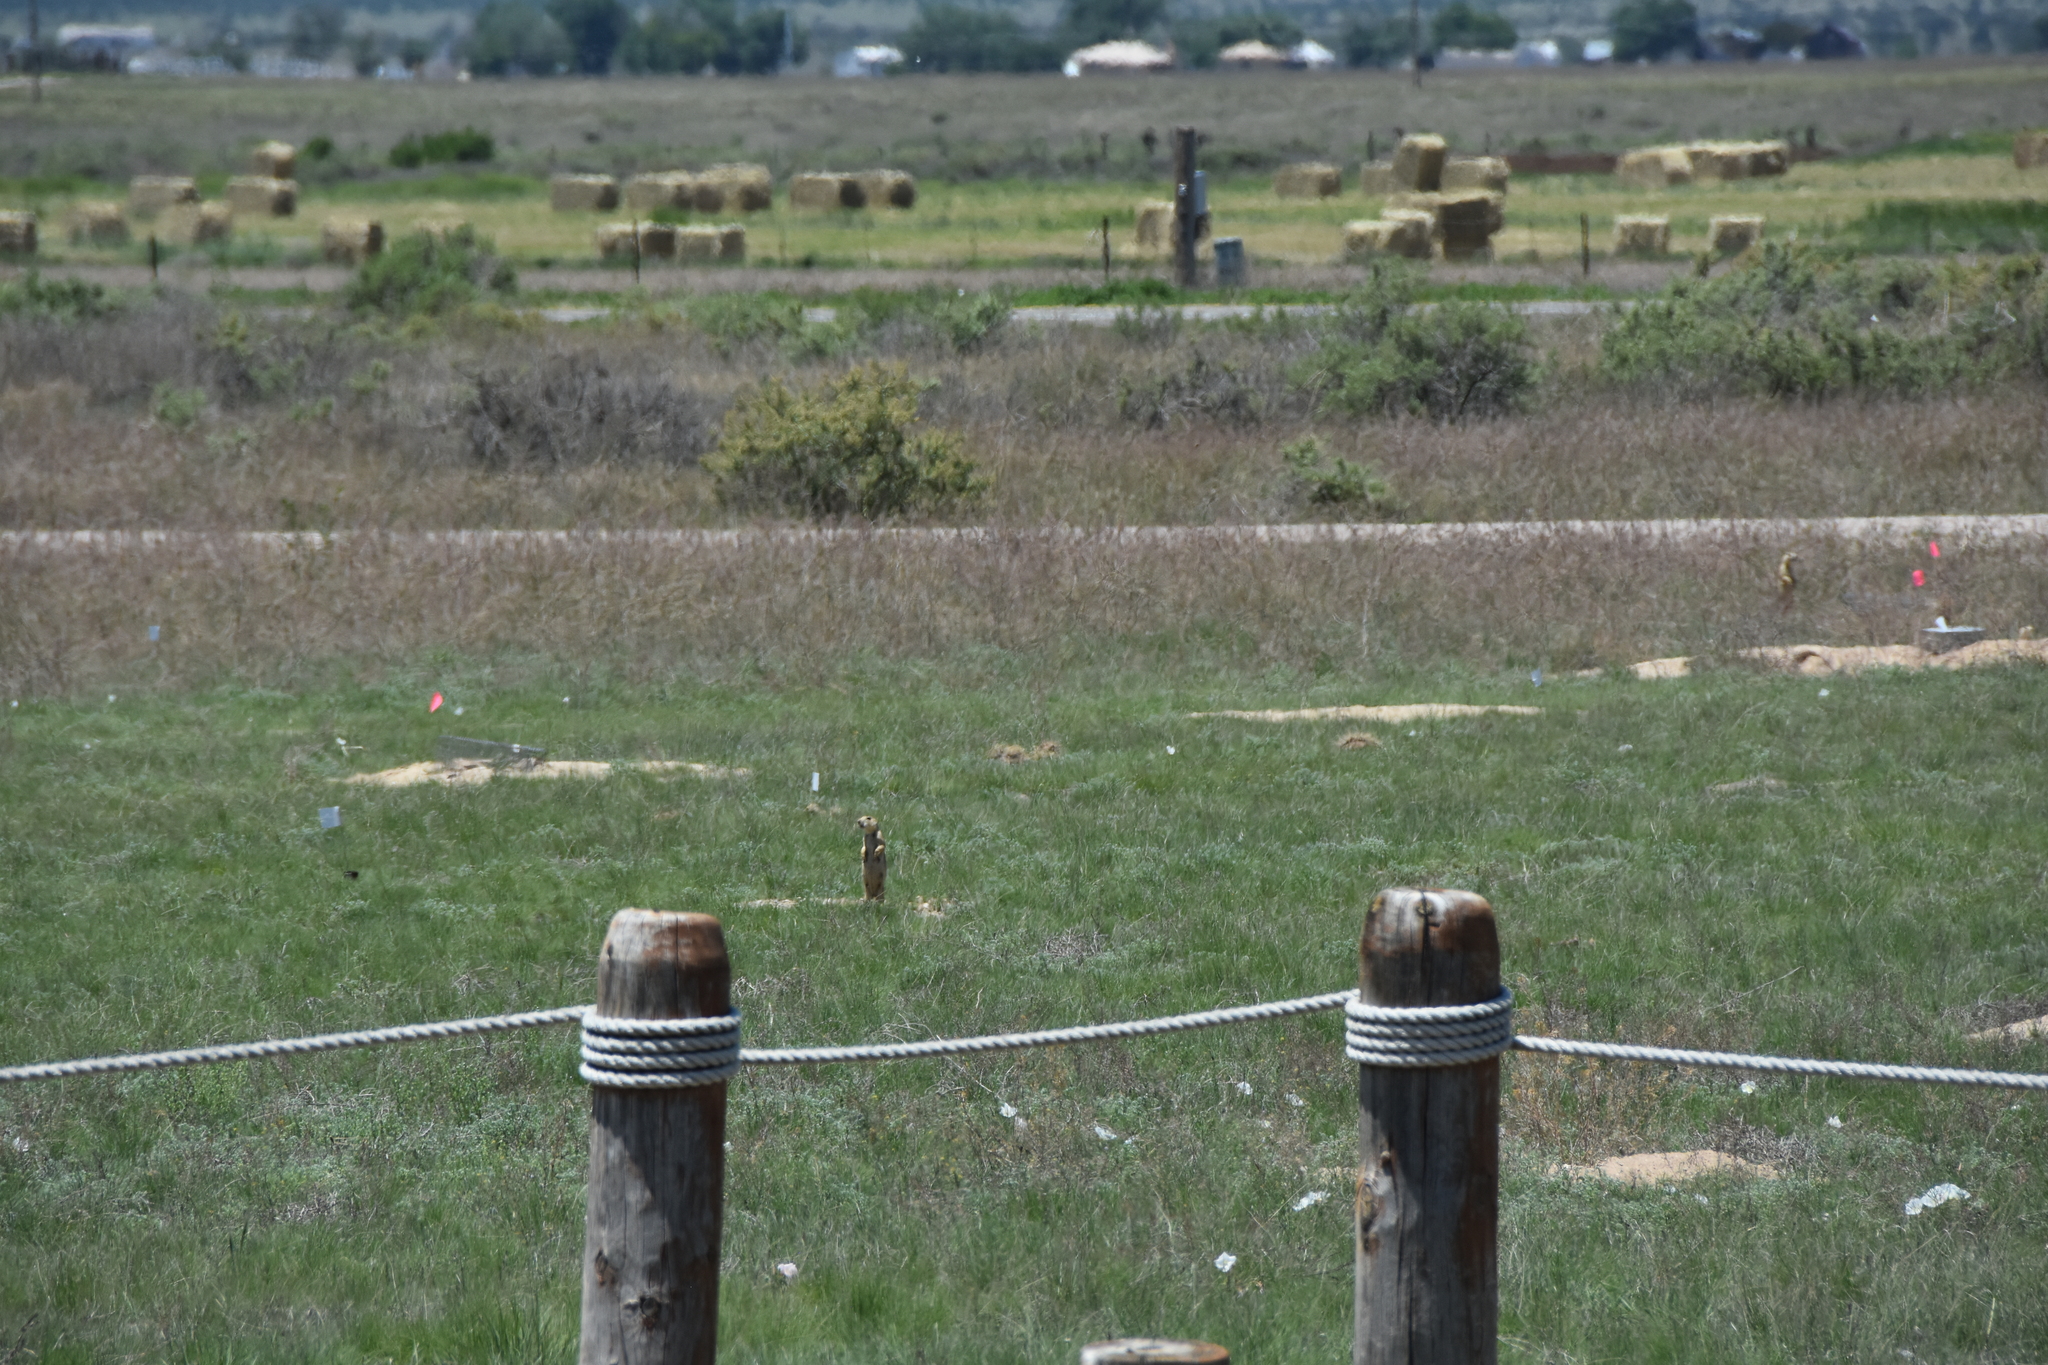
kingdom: Animalia
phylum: Chordata
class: Mammalia
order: Rodentia
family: Sciuridae
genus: Cynomys
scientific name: Cynomys gunnisoni
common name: Gunnison's prairie dog
